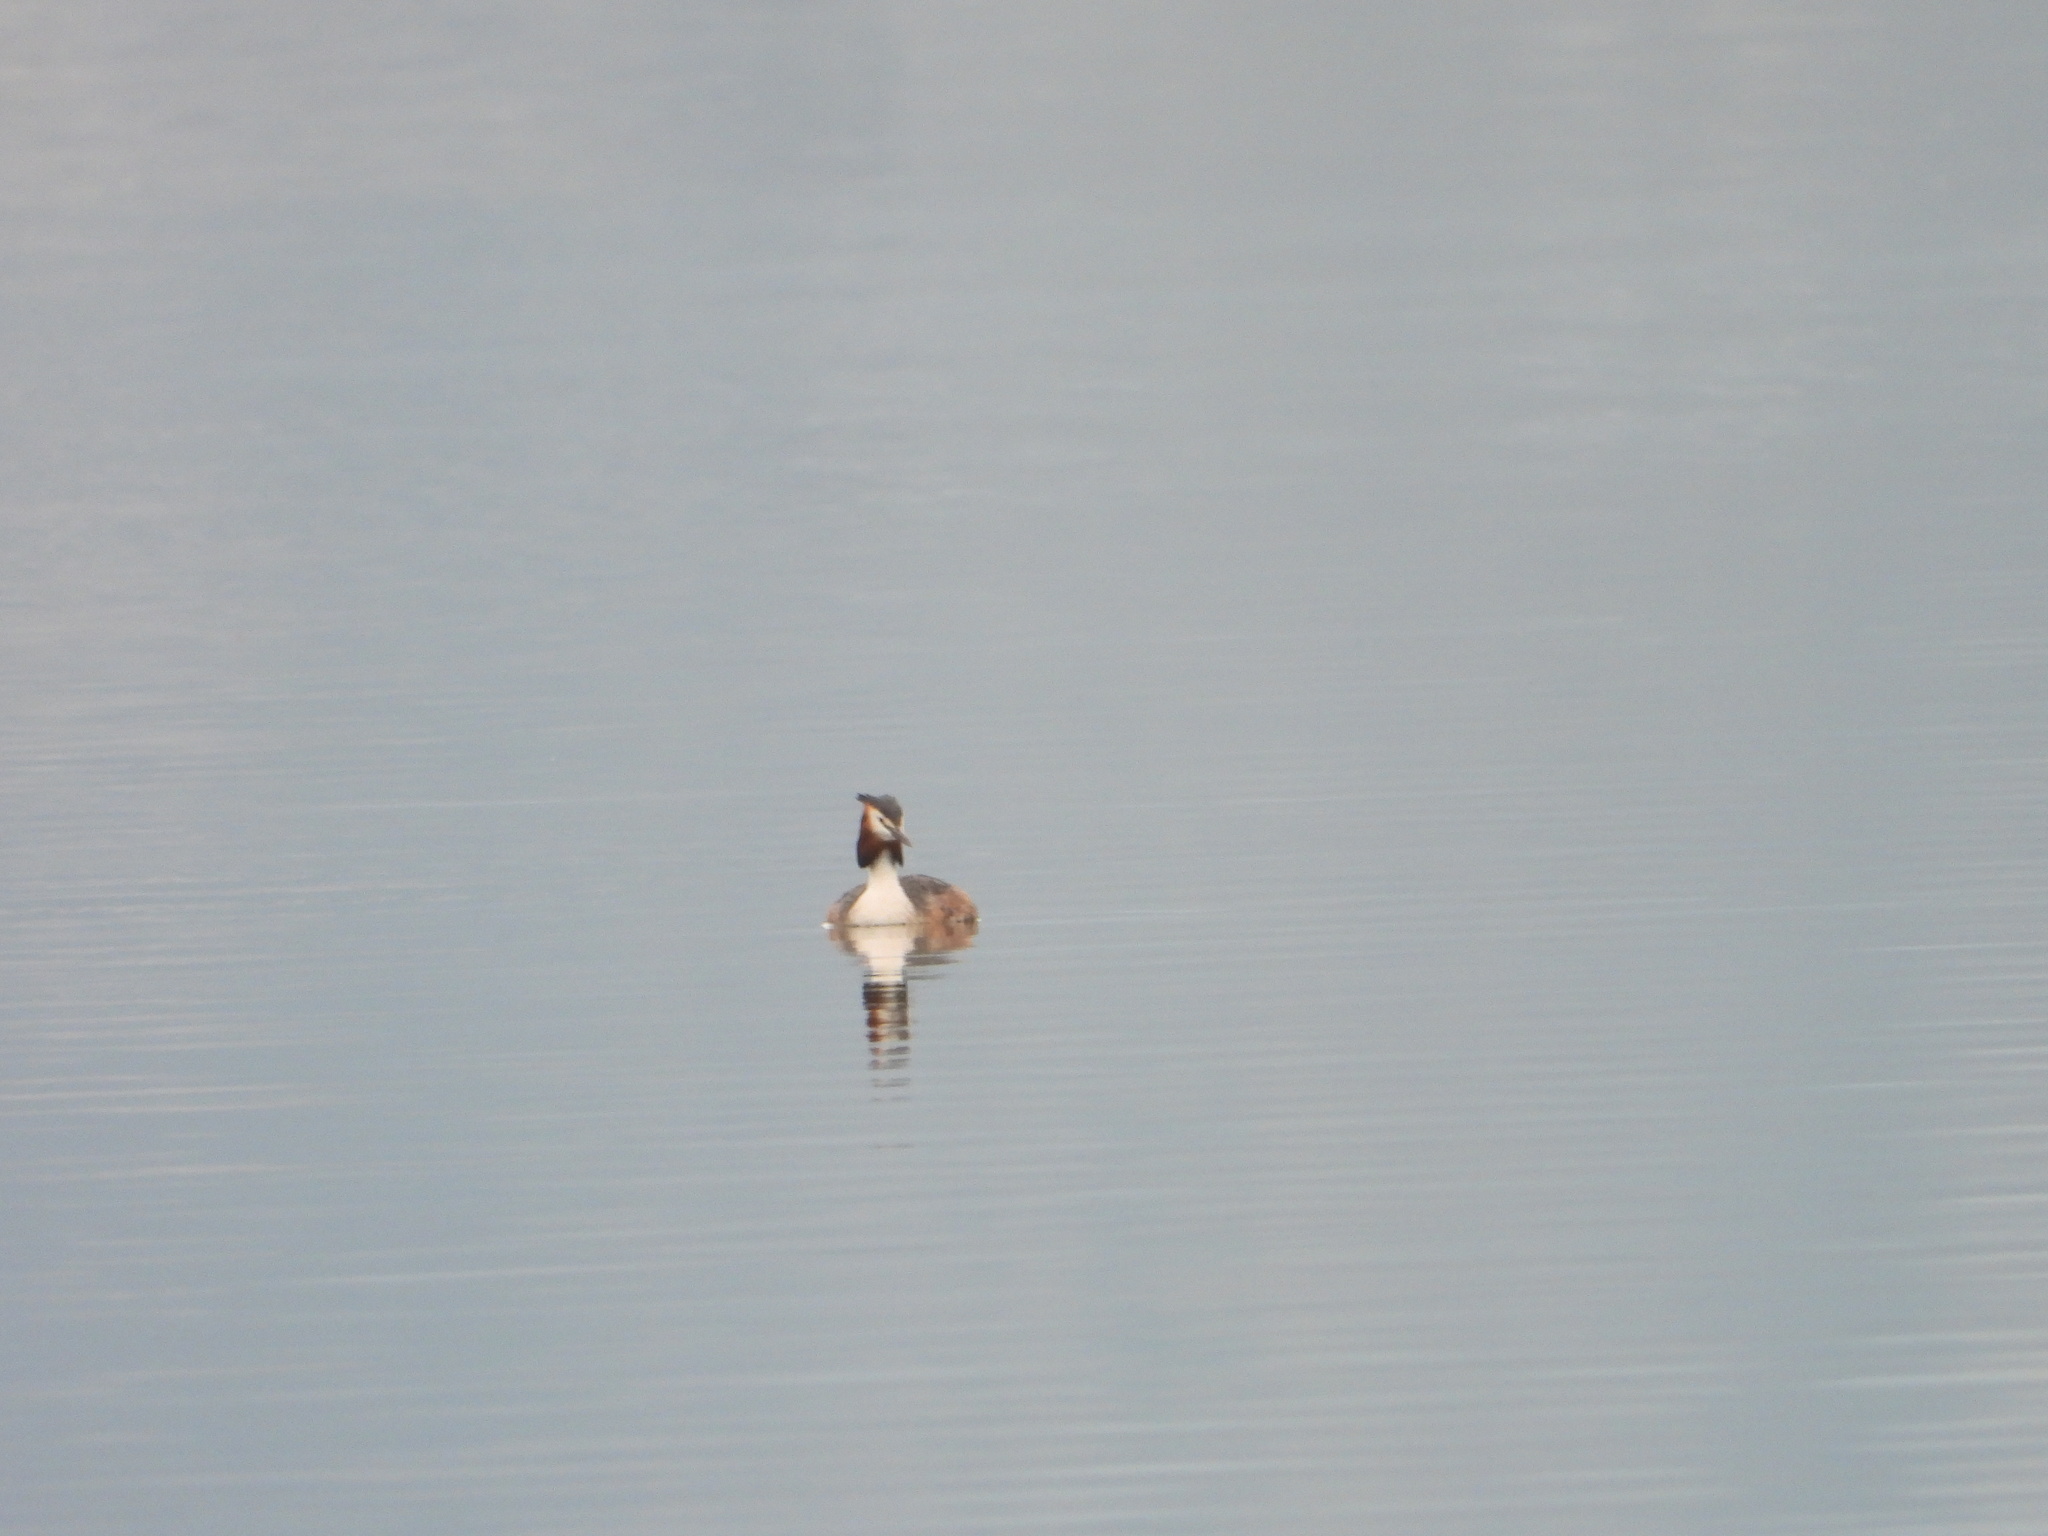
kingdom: Animalia
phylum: Chordata
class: Aves
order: Podicipediformes
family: Podicipedidae
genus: Podiceps
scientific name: Podiceps cristatus
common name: Great crested grebe
